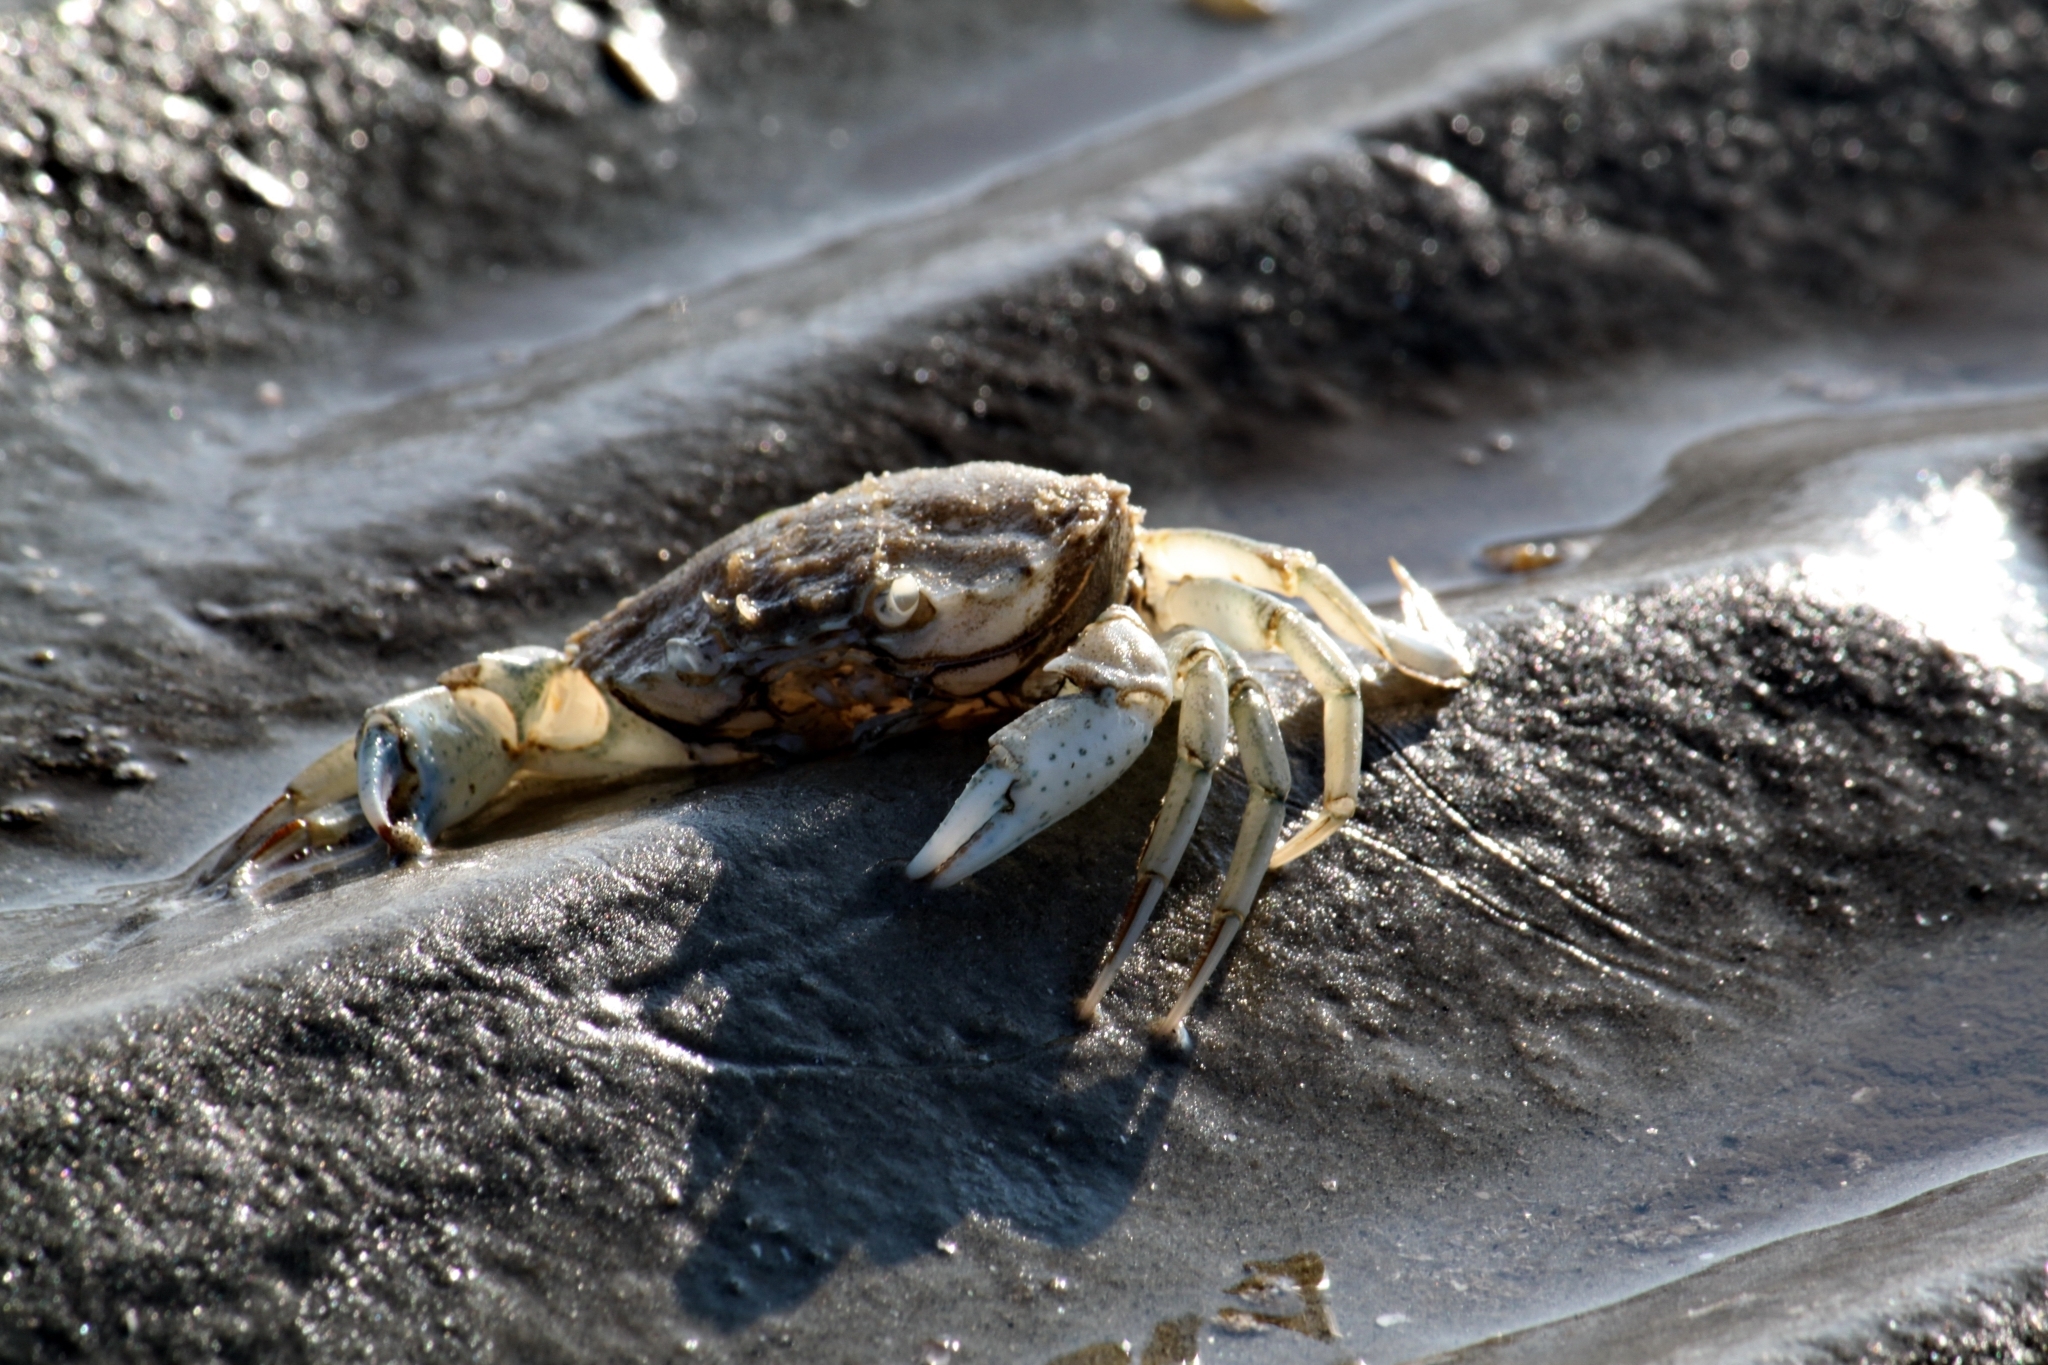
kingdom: Animalia
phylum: Arthropoda
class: Malacostraca
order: Decapoda
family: Carcinidae
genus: Carcinus
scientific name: Carcinus maenas
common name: European green crab
